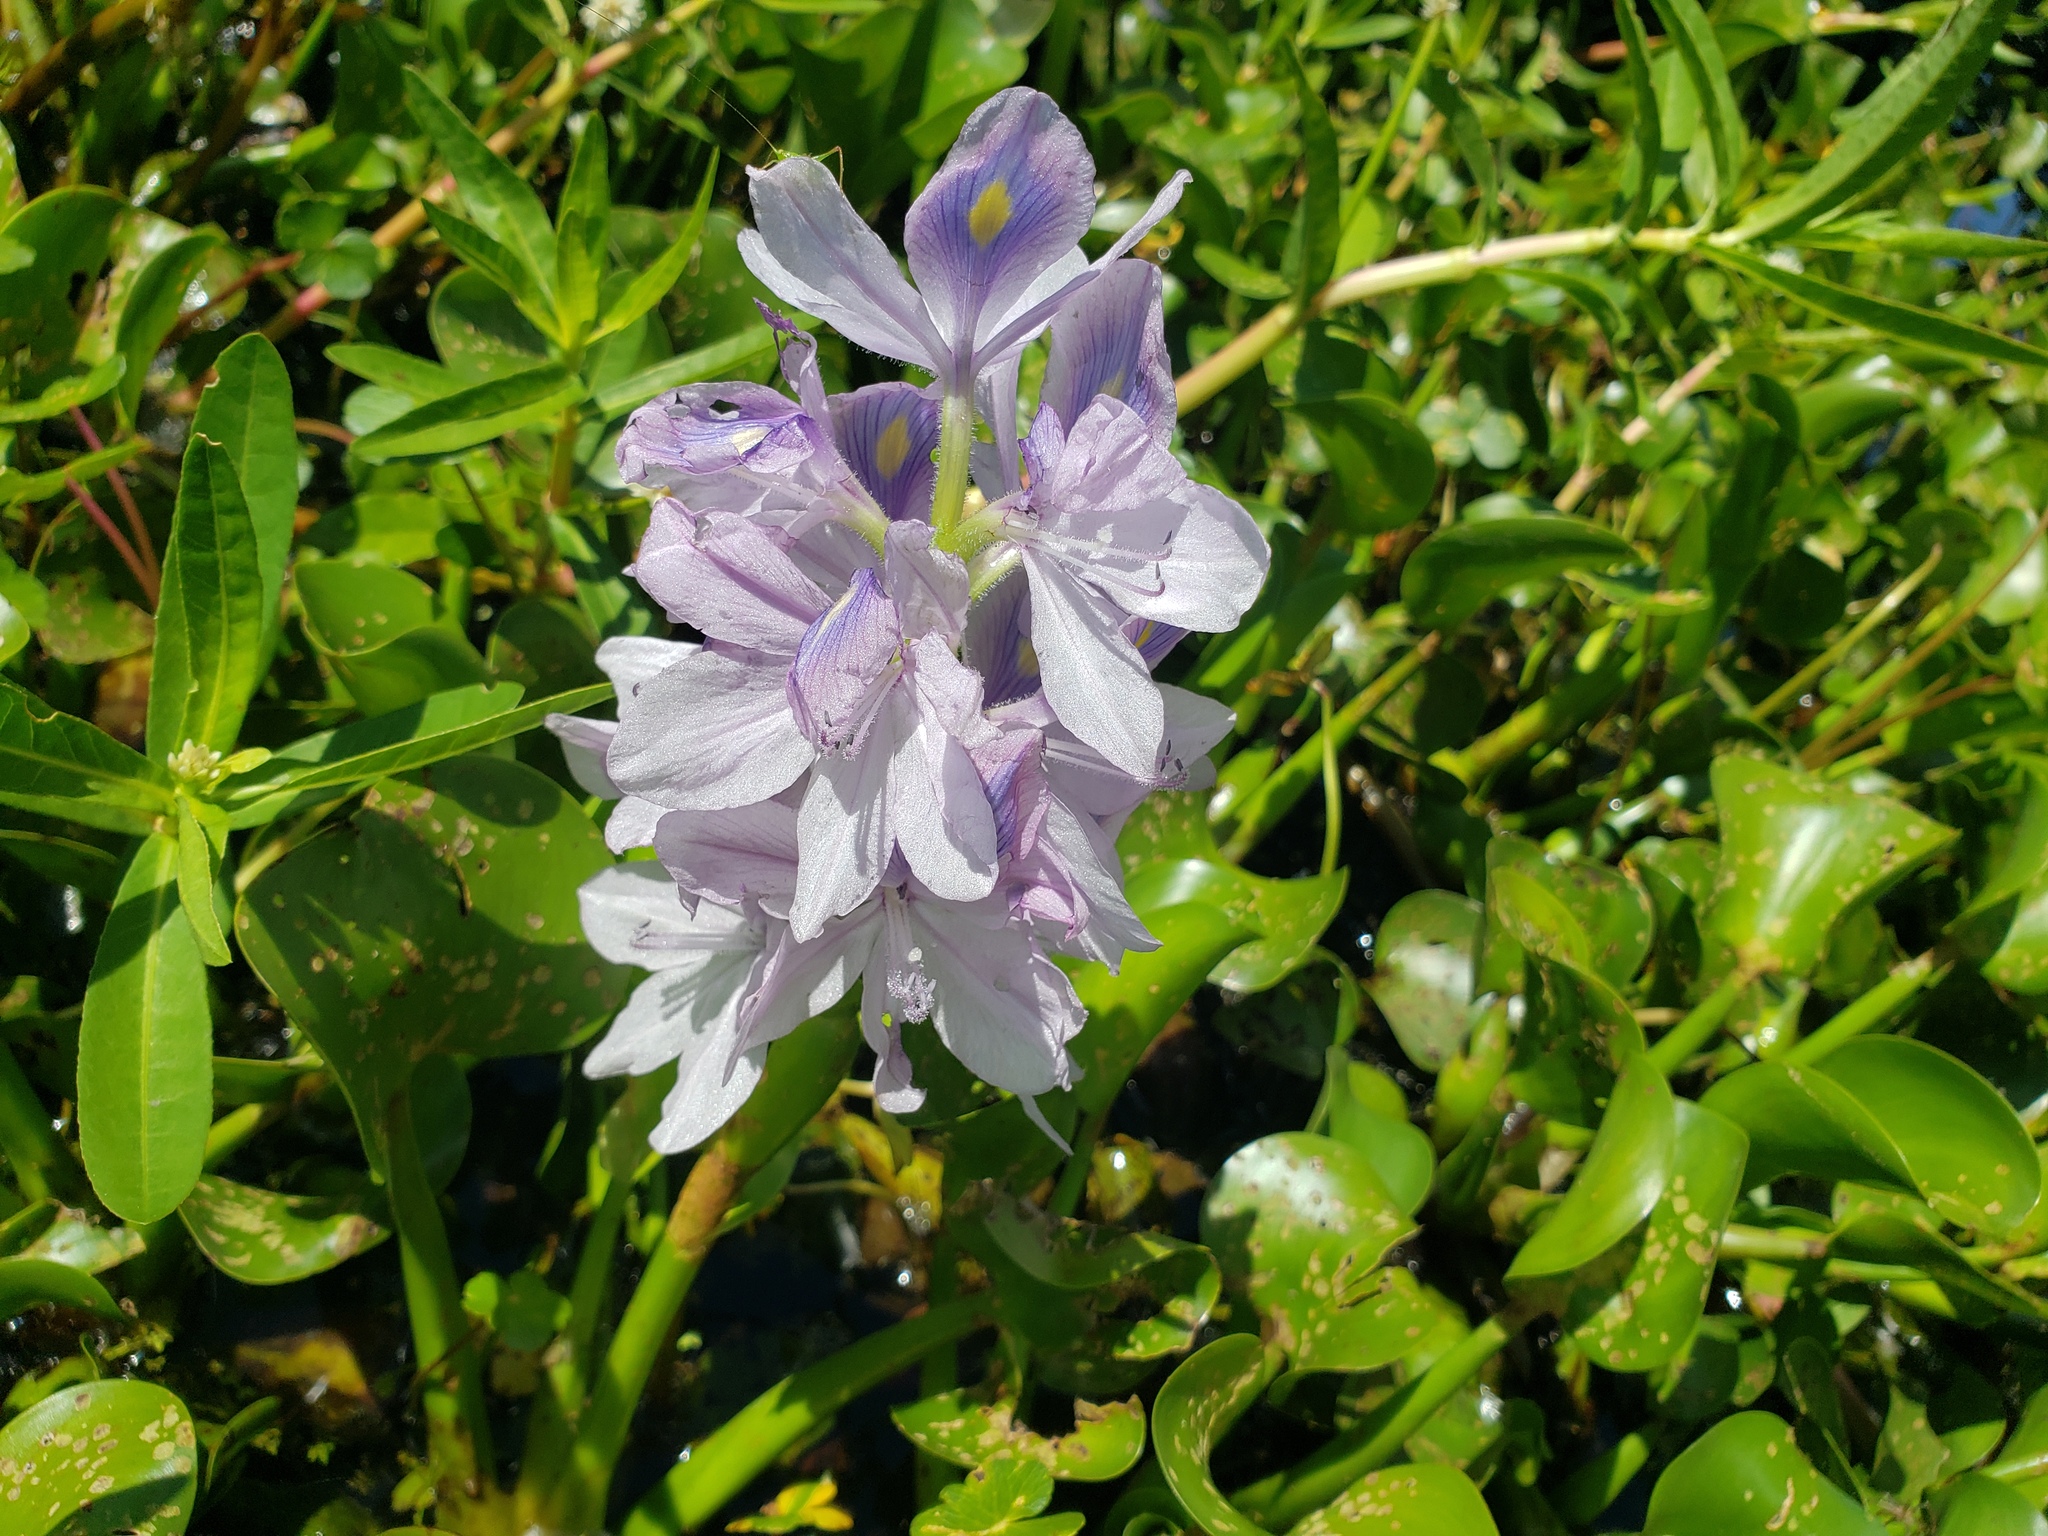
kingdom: Plantae
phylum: Tracheophyta
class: Liliopsida
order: Commelinales
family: Pontederiaceae
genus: Pontederia
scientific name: Pontederia crassipes
